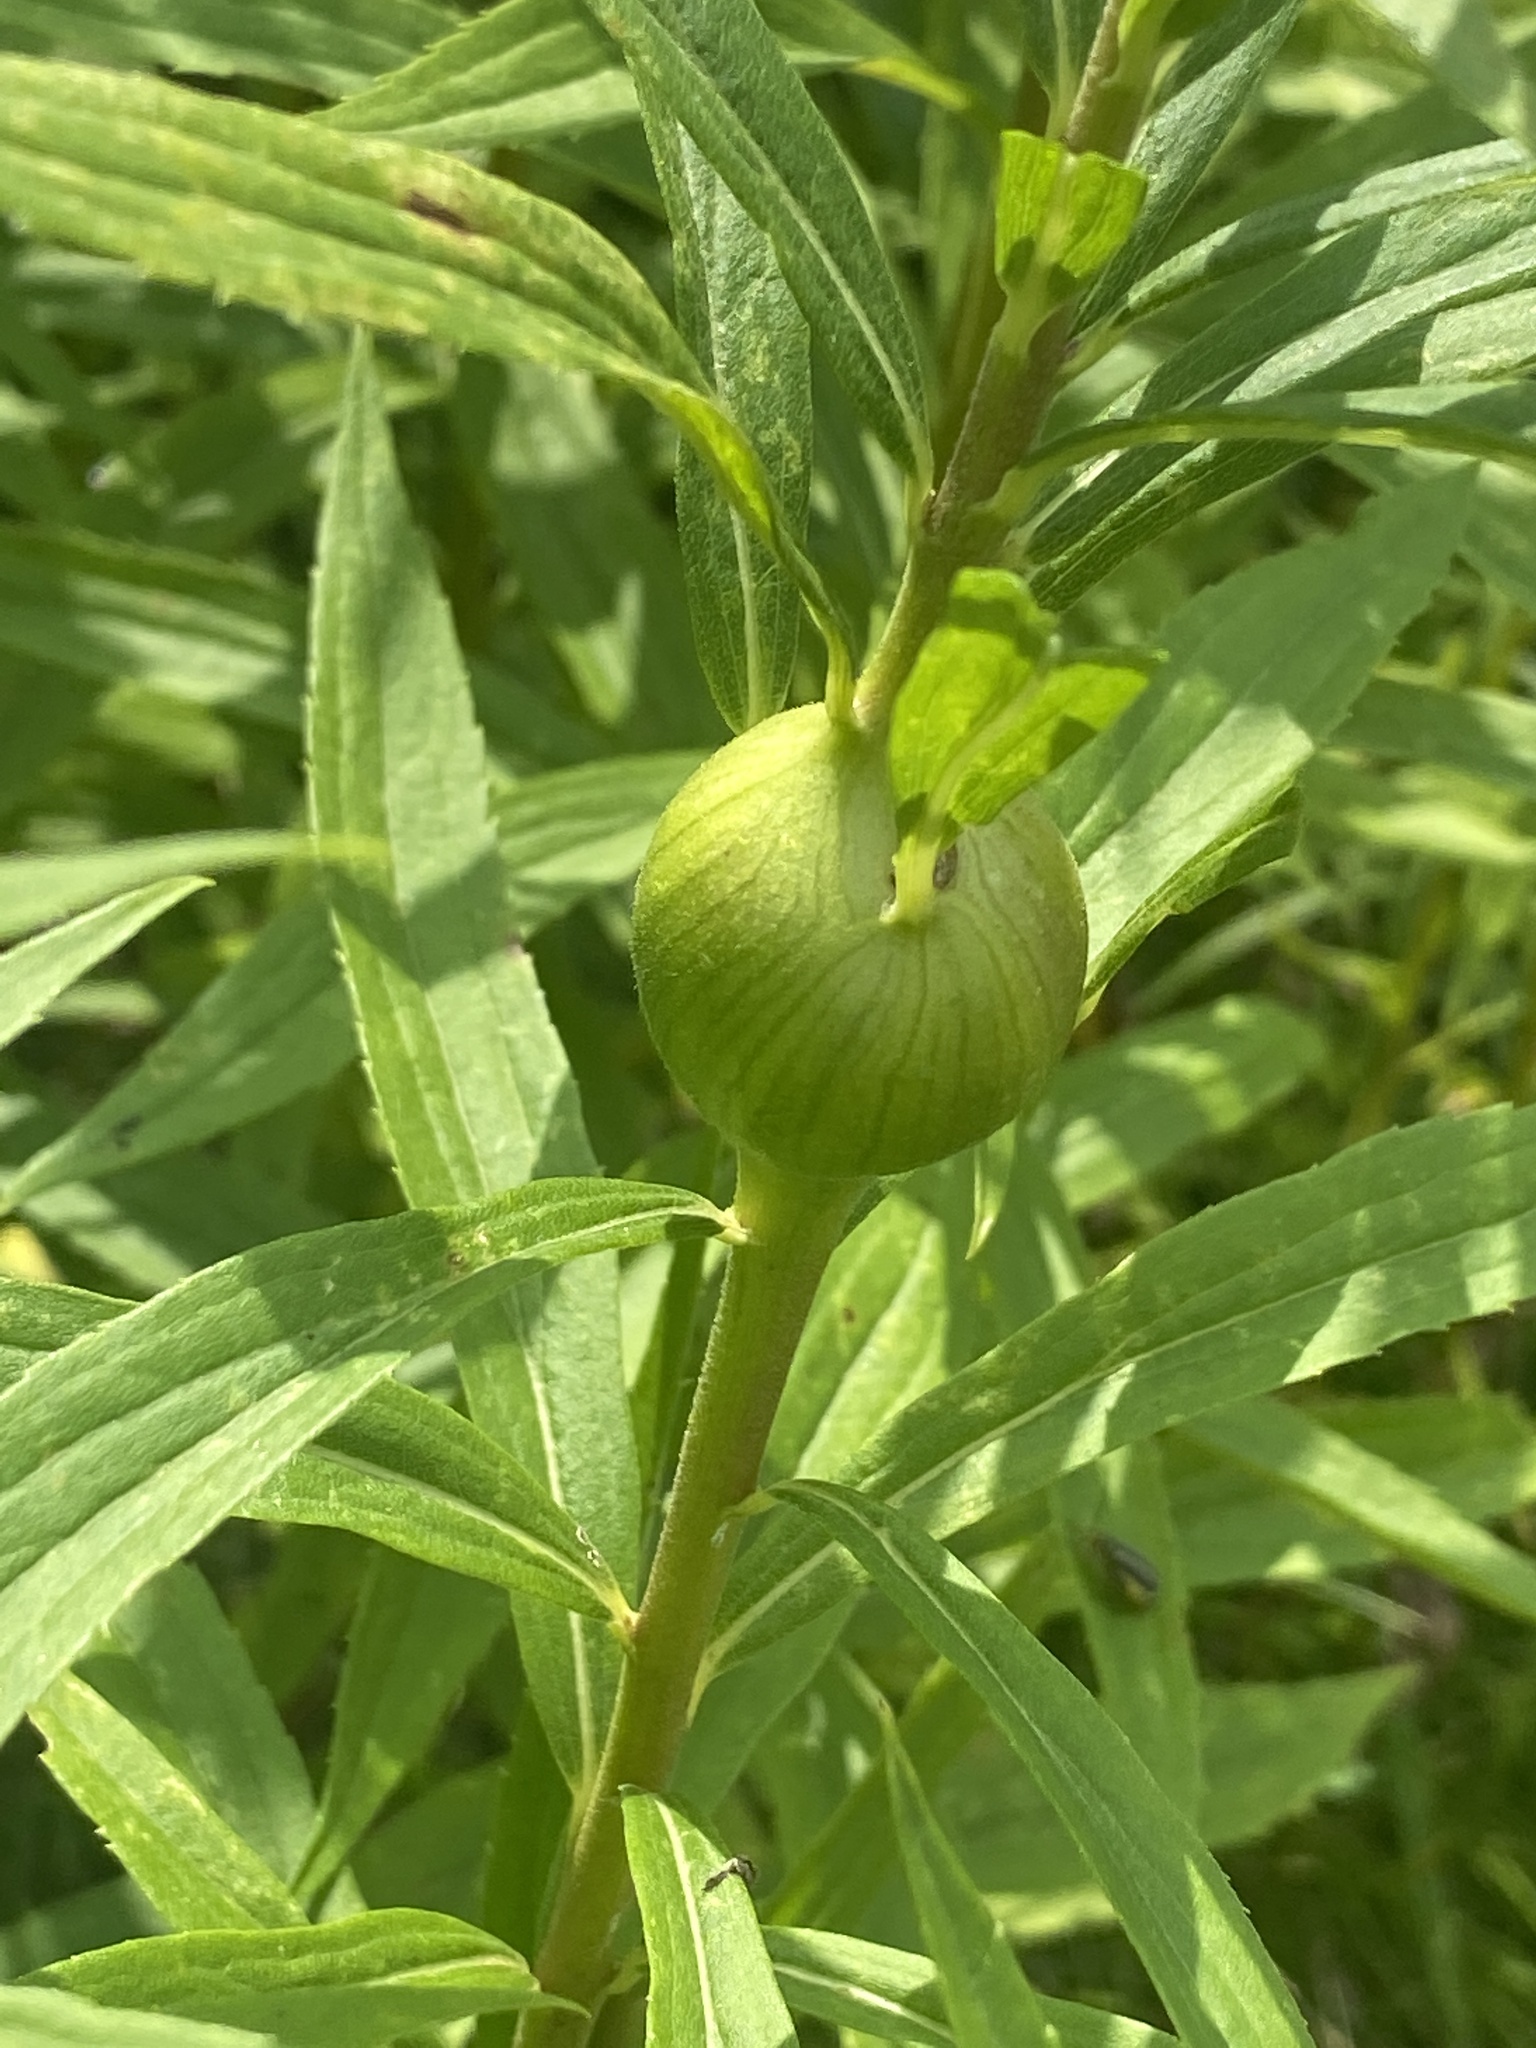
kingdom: Animalia
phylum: Arthropoda
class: Insecta
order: Diptera
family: Tephritidae
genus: Eurosta
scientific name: Eurosta solidaginis
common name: Goldenrod gall fly
